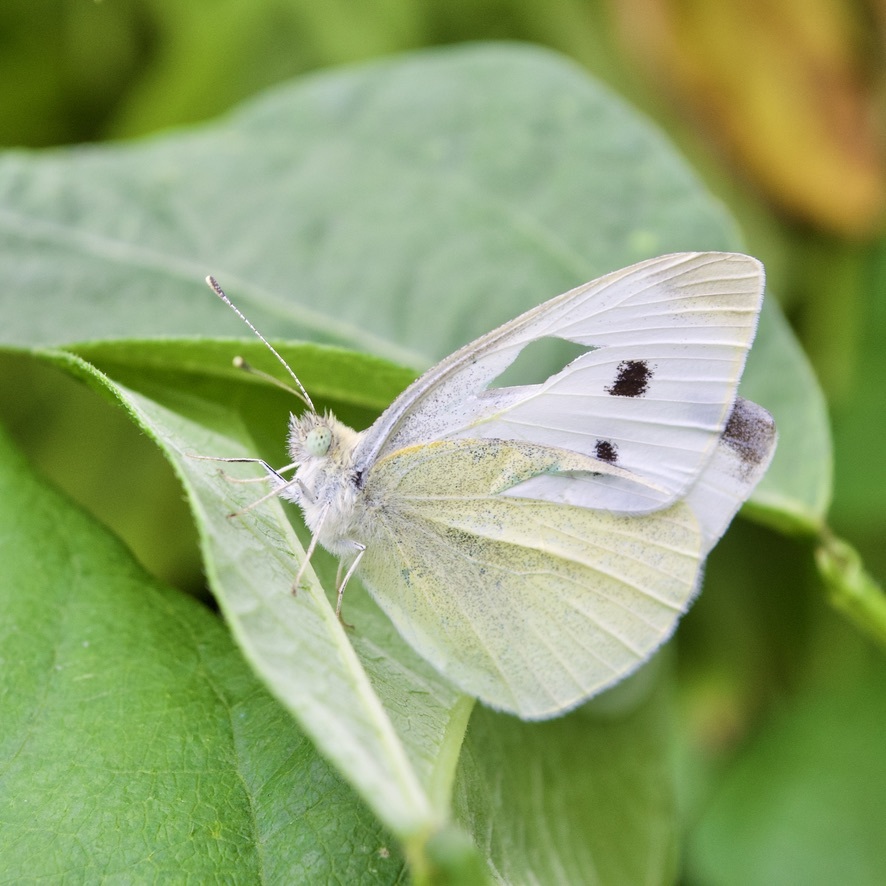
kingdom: Animalia
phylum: Arthropoda
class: Insecta
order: Lepidoptera
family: Pieridae
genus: Pieris
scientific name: Pieris rapae
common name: Small white
